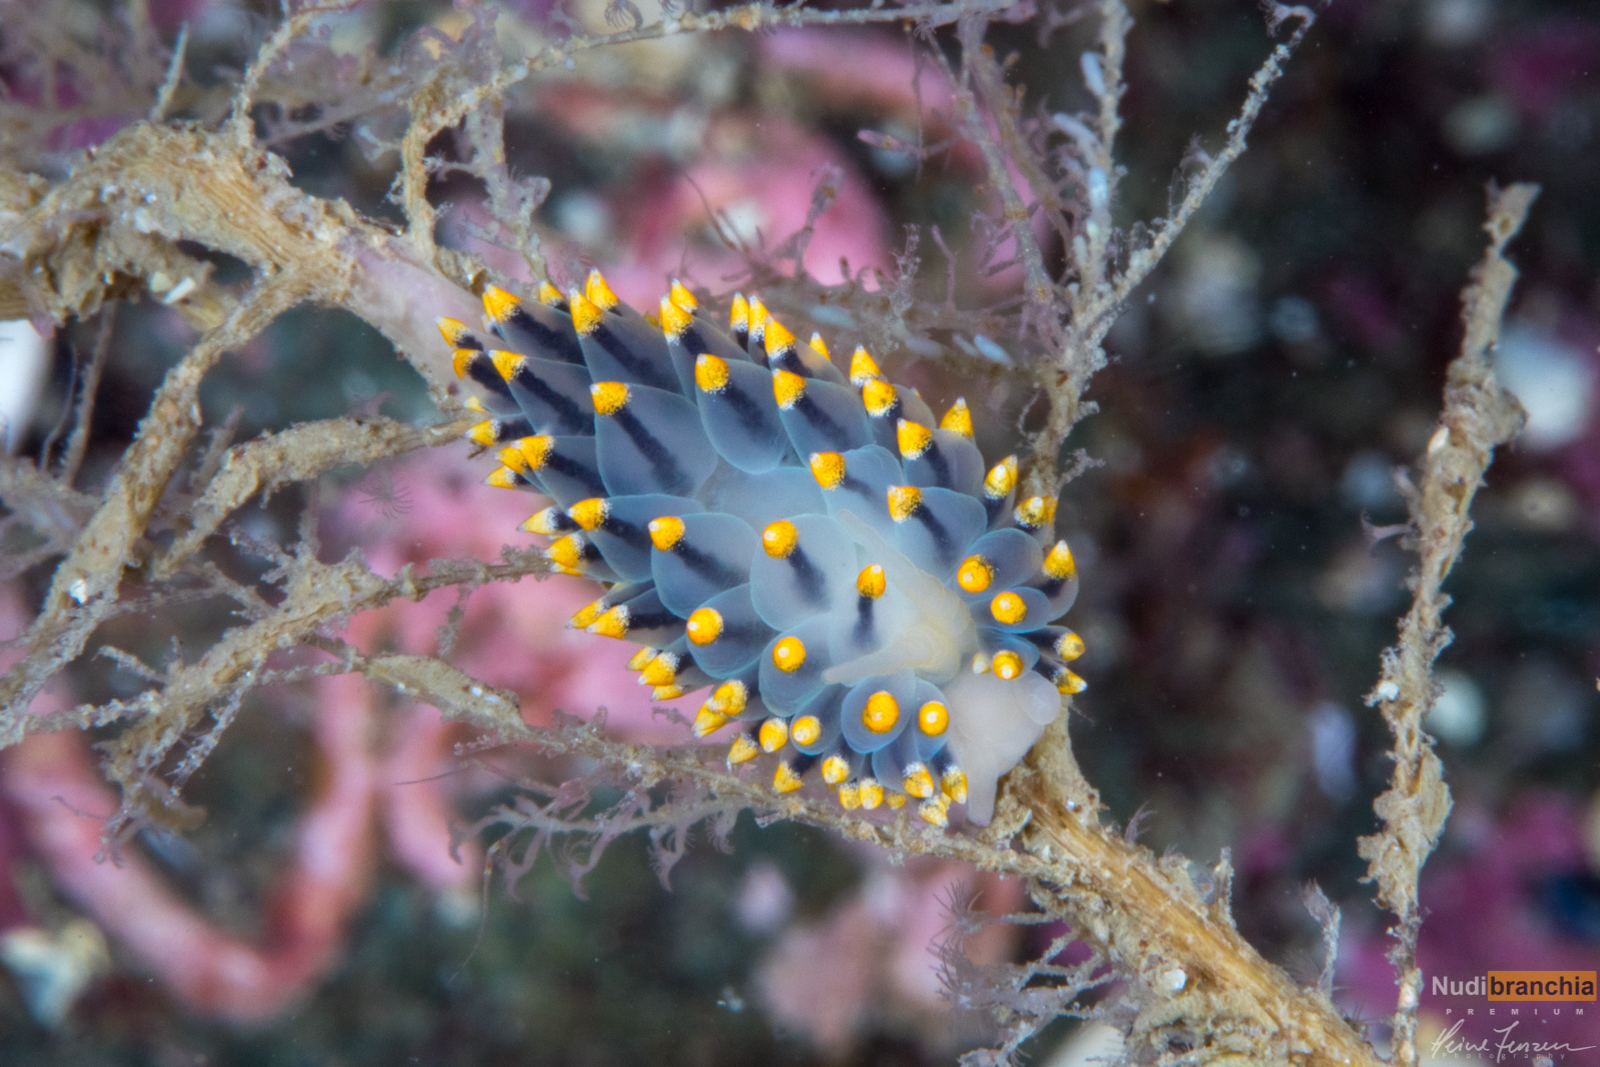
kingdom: Animalia
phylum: Mollusca
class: Gastropoda
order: Nudibranchia
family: Eubranchidae
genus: Eubranchus
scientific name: Eubranchus tricolor
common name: Painted balloon aeolis
